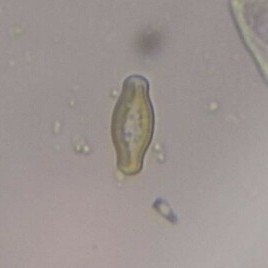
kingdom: Chromista
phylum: Ochrophyta
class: Bacillariophyceae
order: Naviculales
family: Naviculaceae
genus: Hippodonta
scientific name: Hippodonta capitata
